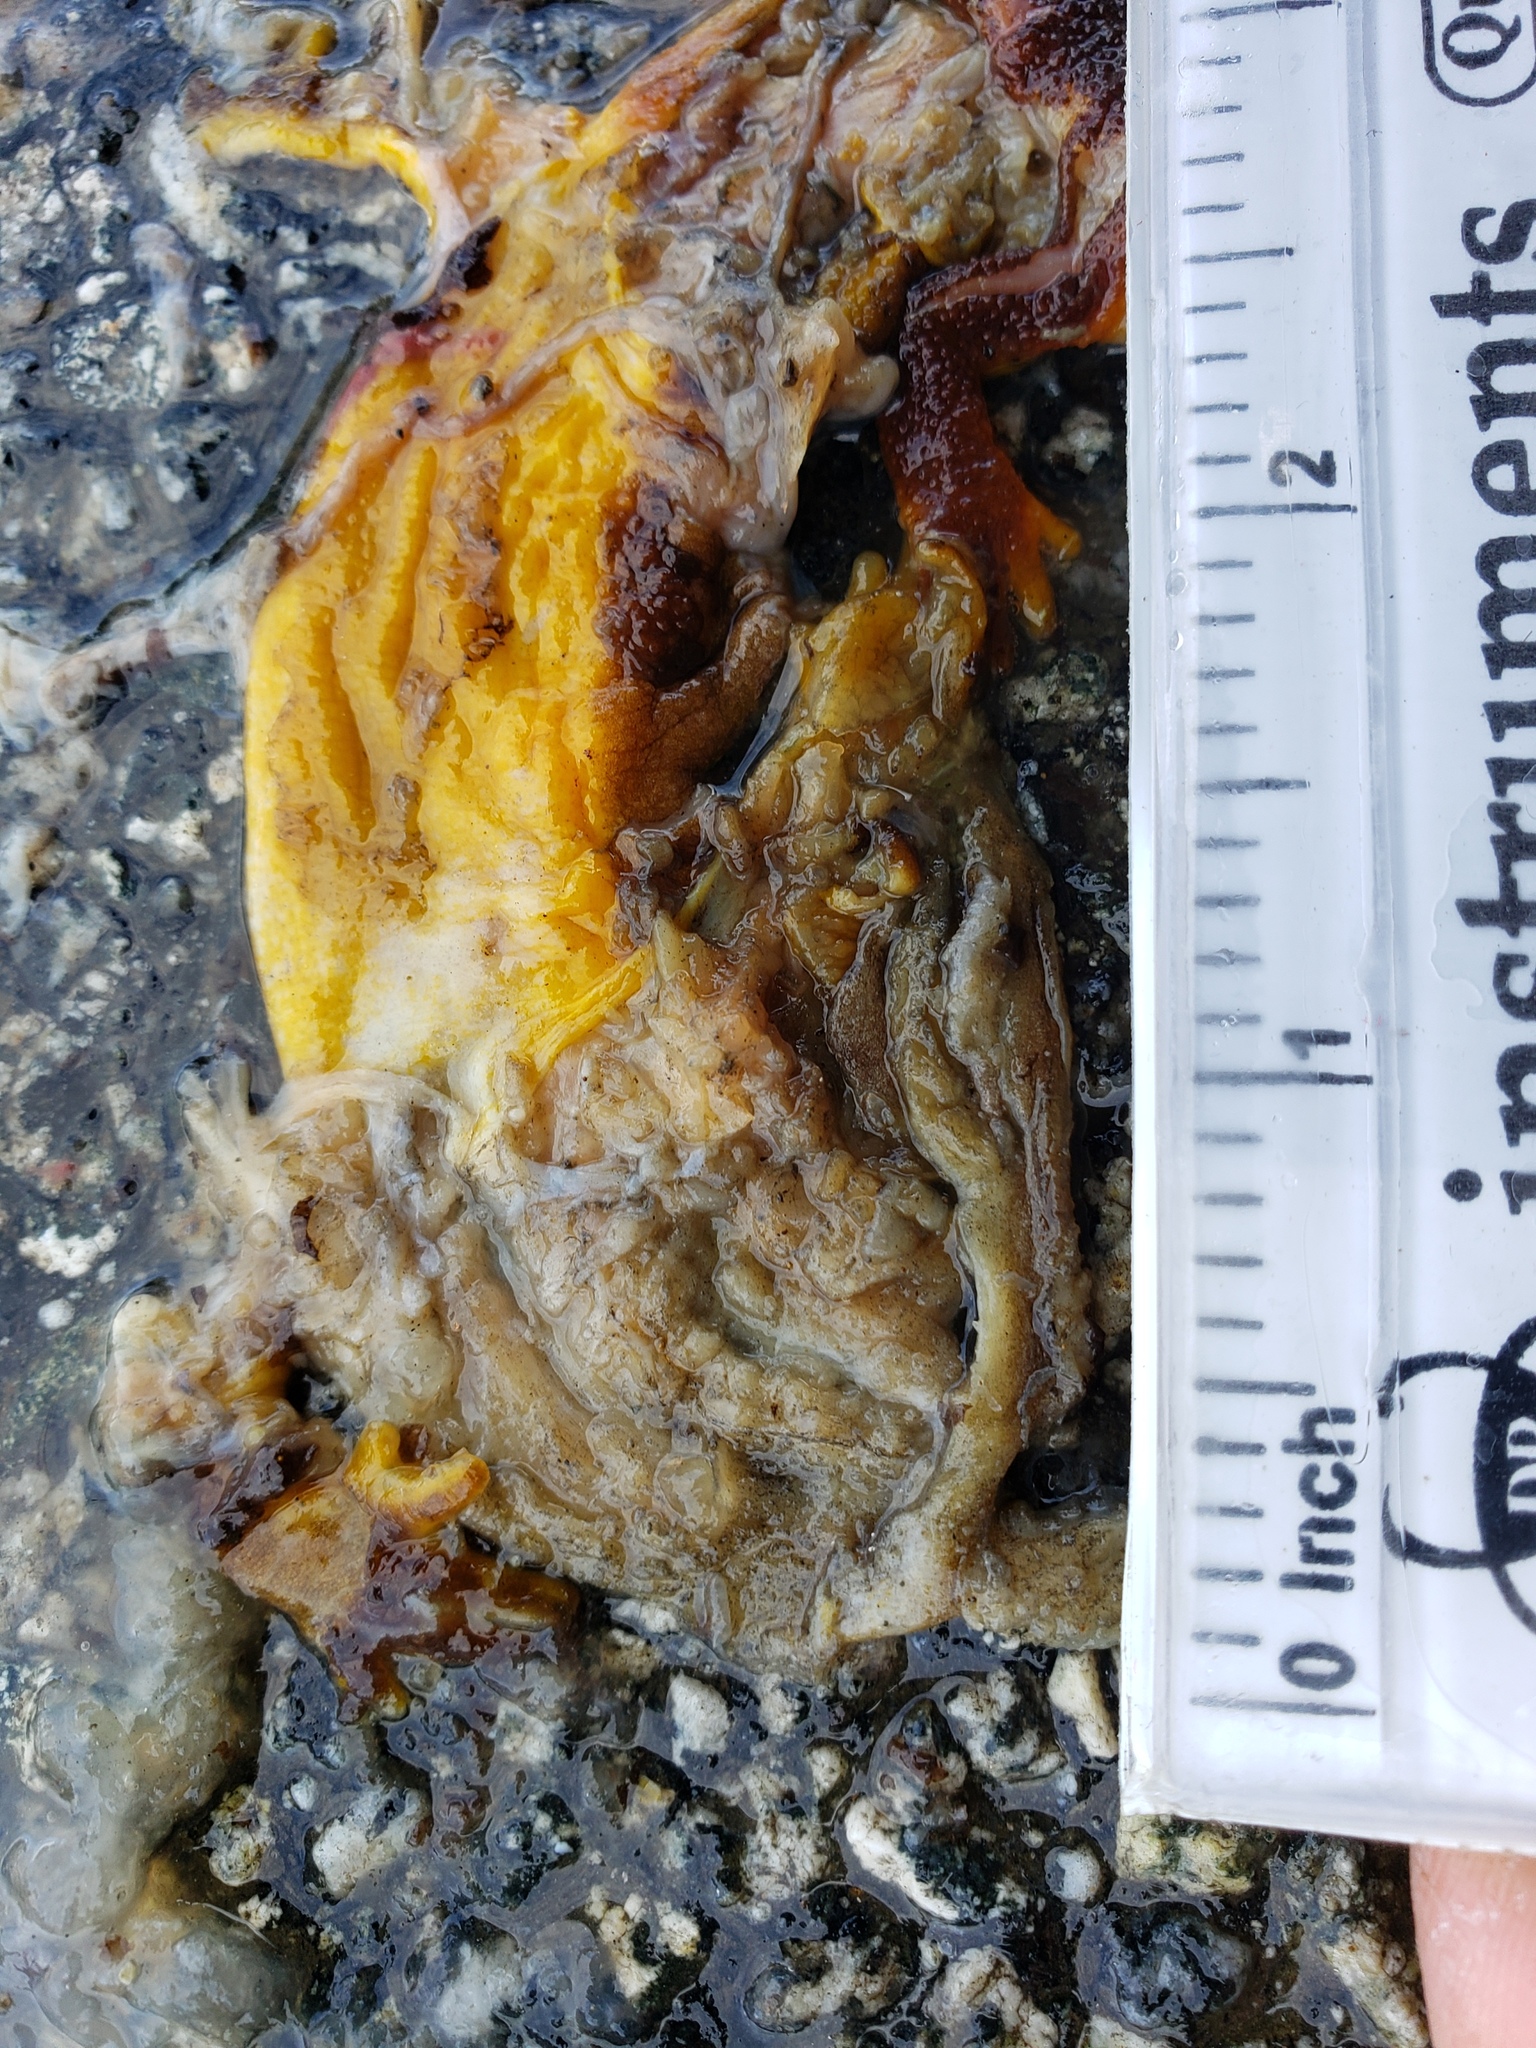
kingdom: Animalia
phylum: Chordata
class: Amphibia
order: Caudata
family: Salamandridae
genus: Taricha
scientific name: Taricha
